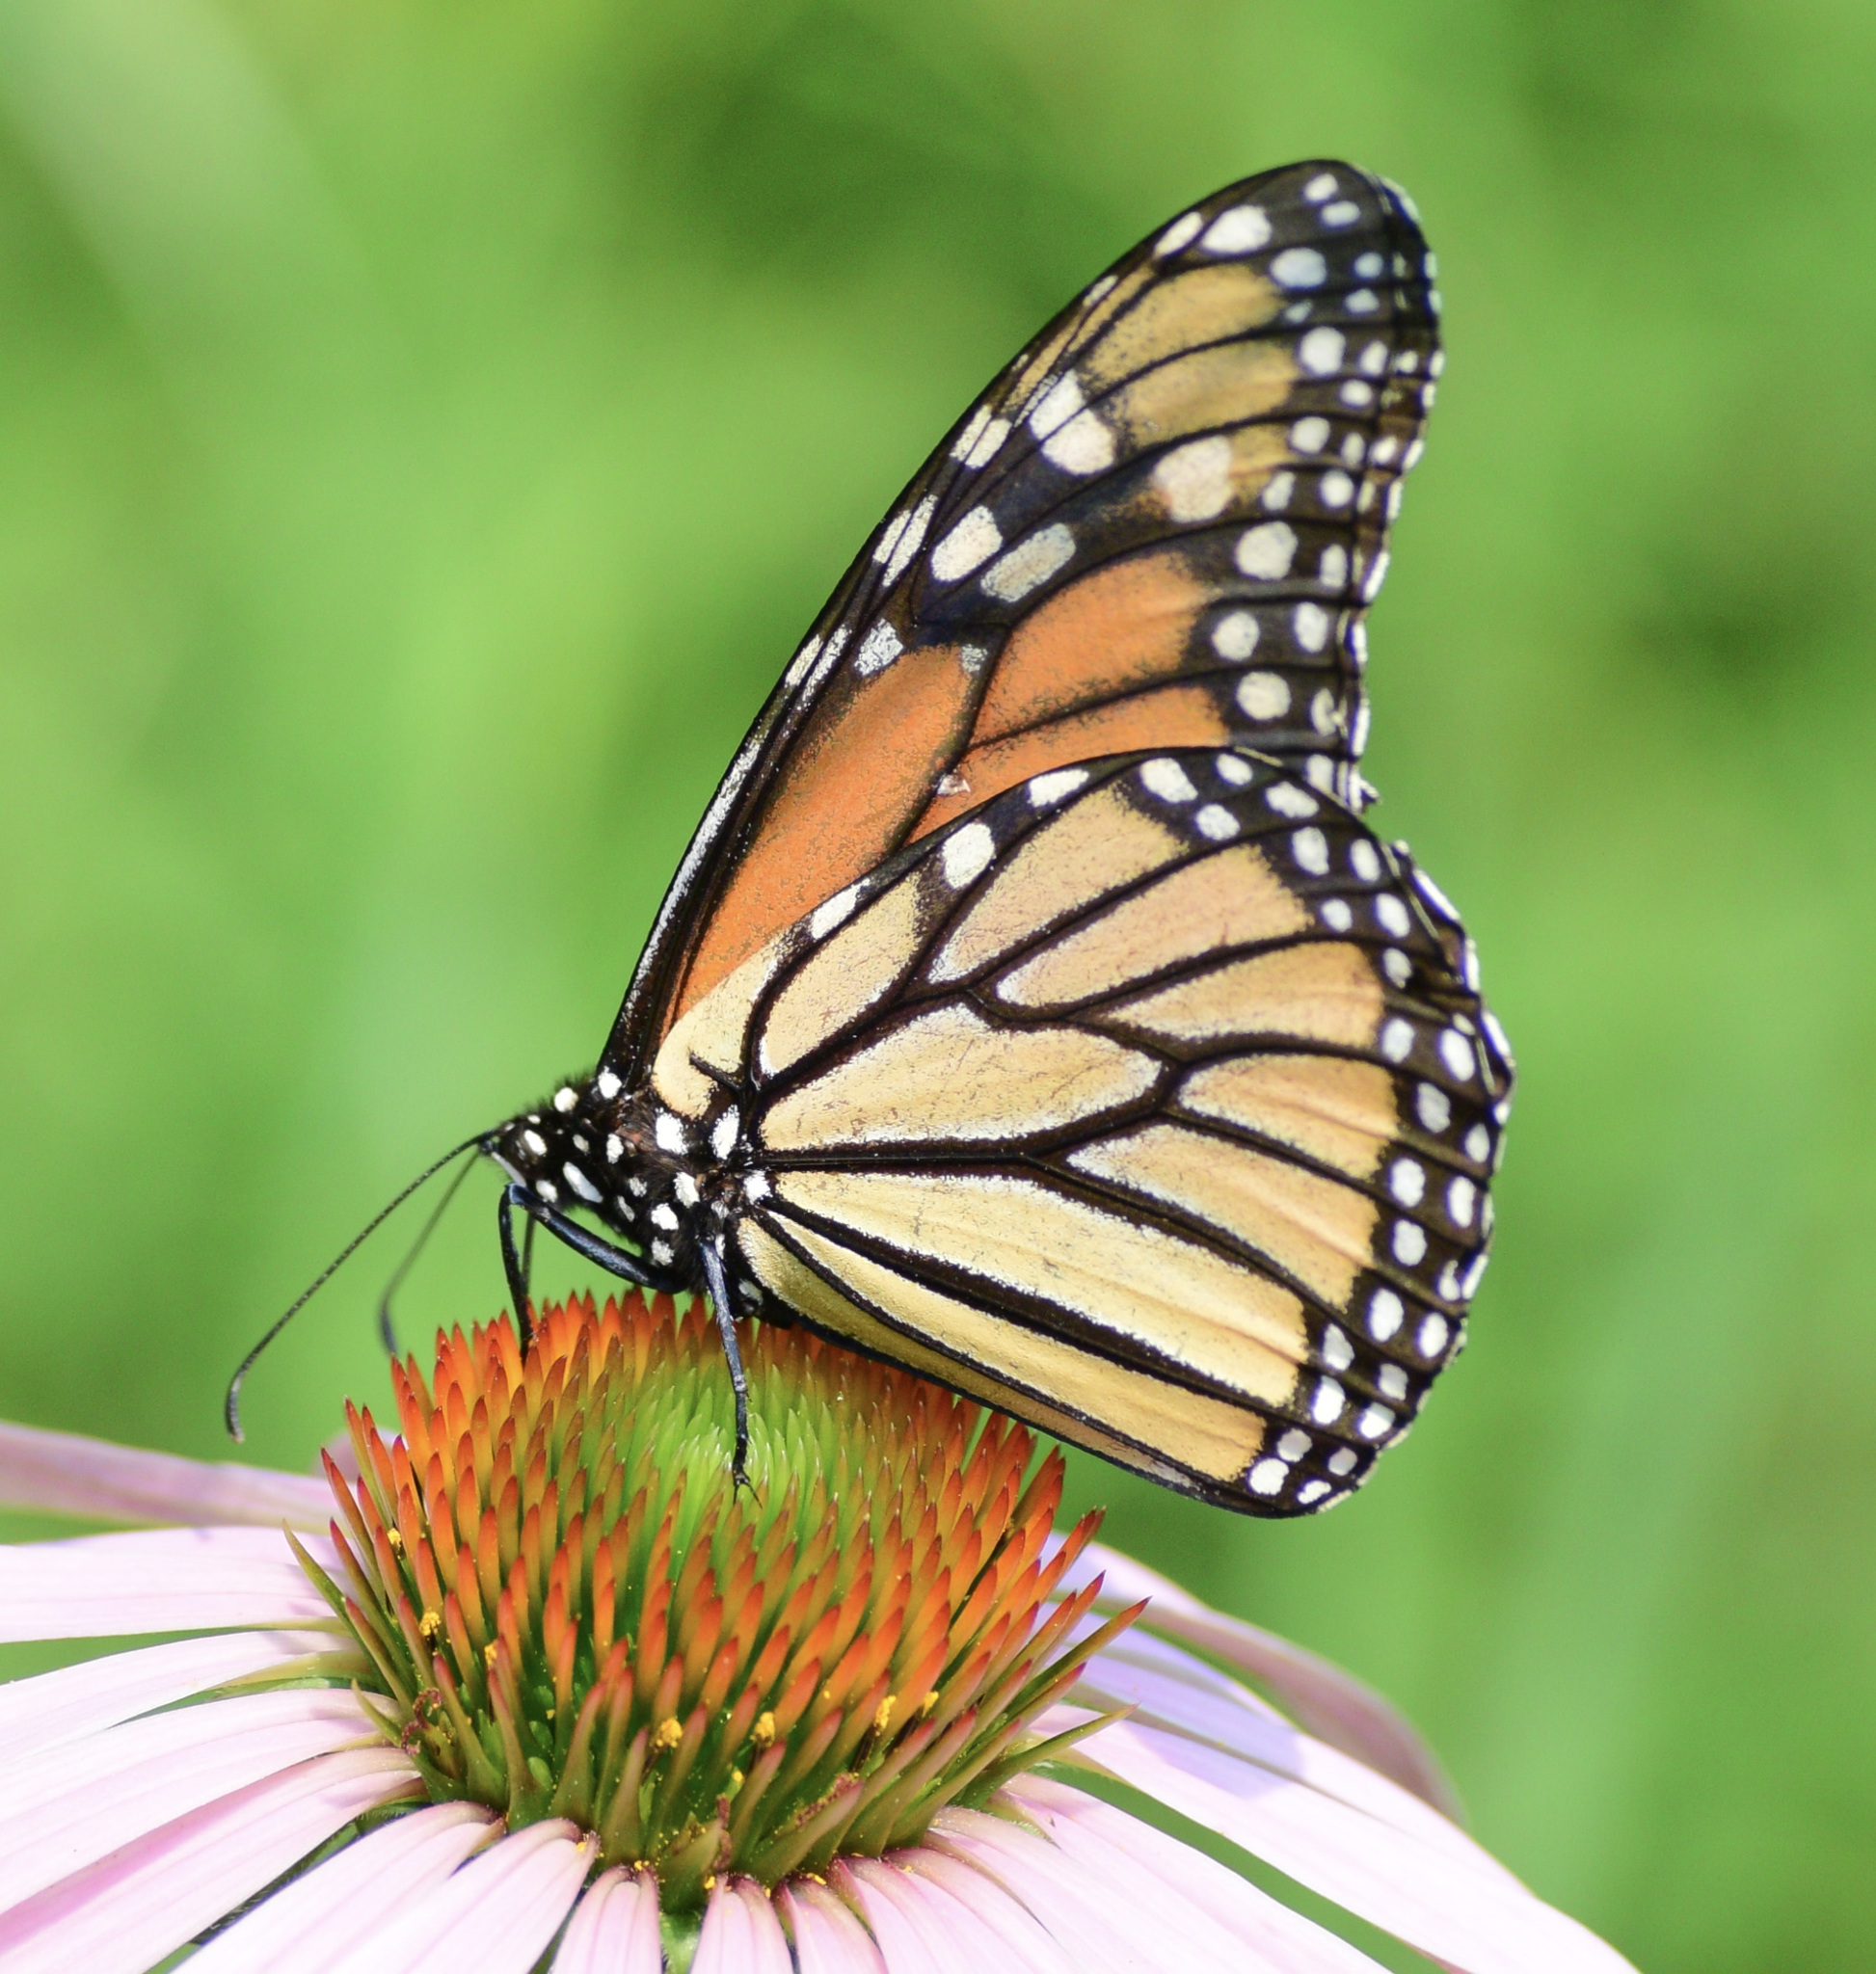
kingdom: Animalia
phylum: Arthropoda
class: Insecta
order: Lepidoptera
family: Nymphalidae
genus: Danaus
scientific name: Danaus plexippus
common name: Monarch
